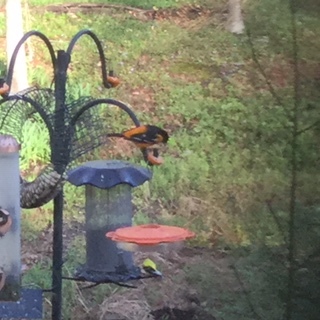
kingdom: Animalia
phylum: Chordata
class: Aves
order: Passeriformes
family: Icteridae
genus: Icterus
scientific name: Icterus galbula
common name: Baltimore oriole
